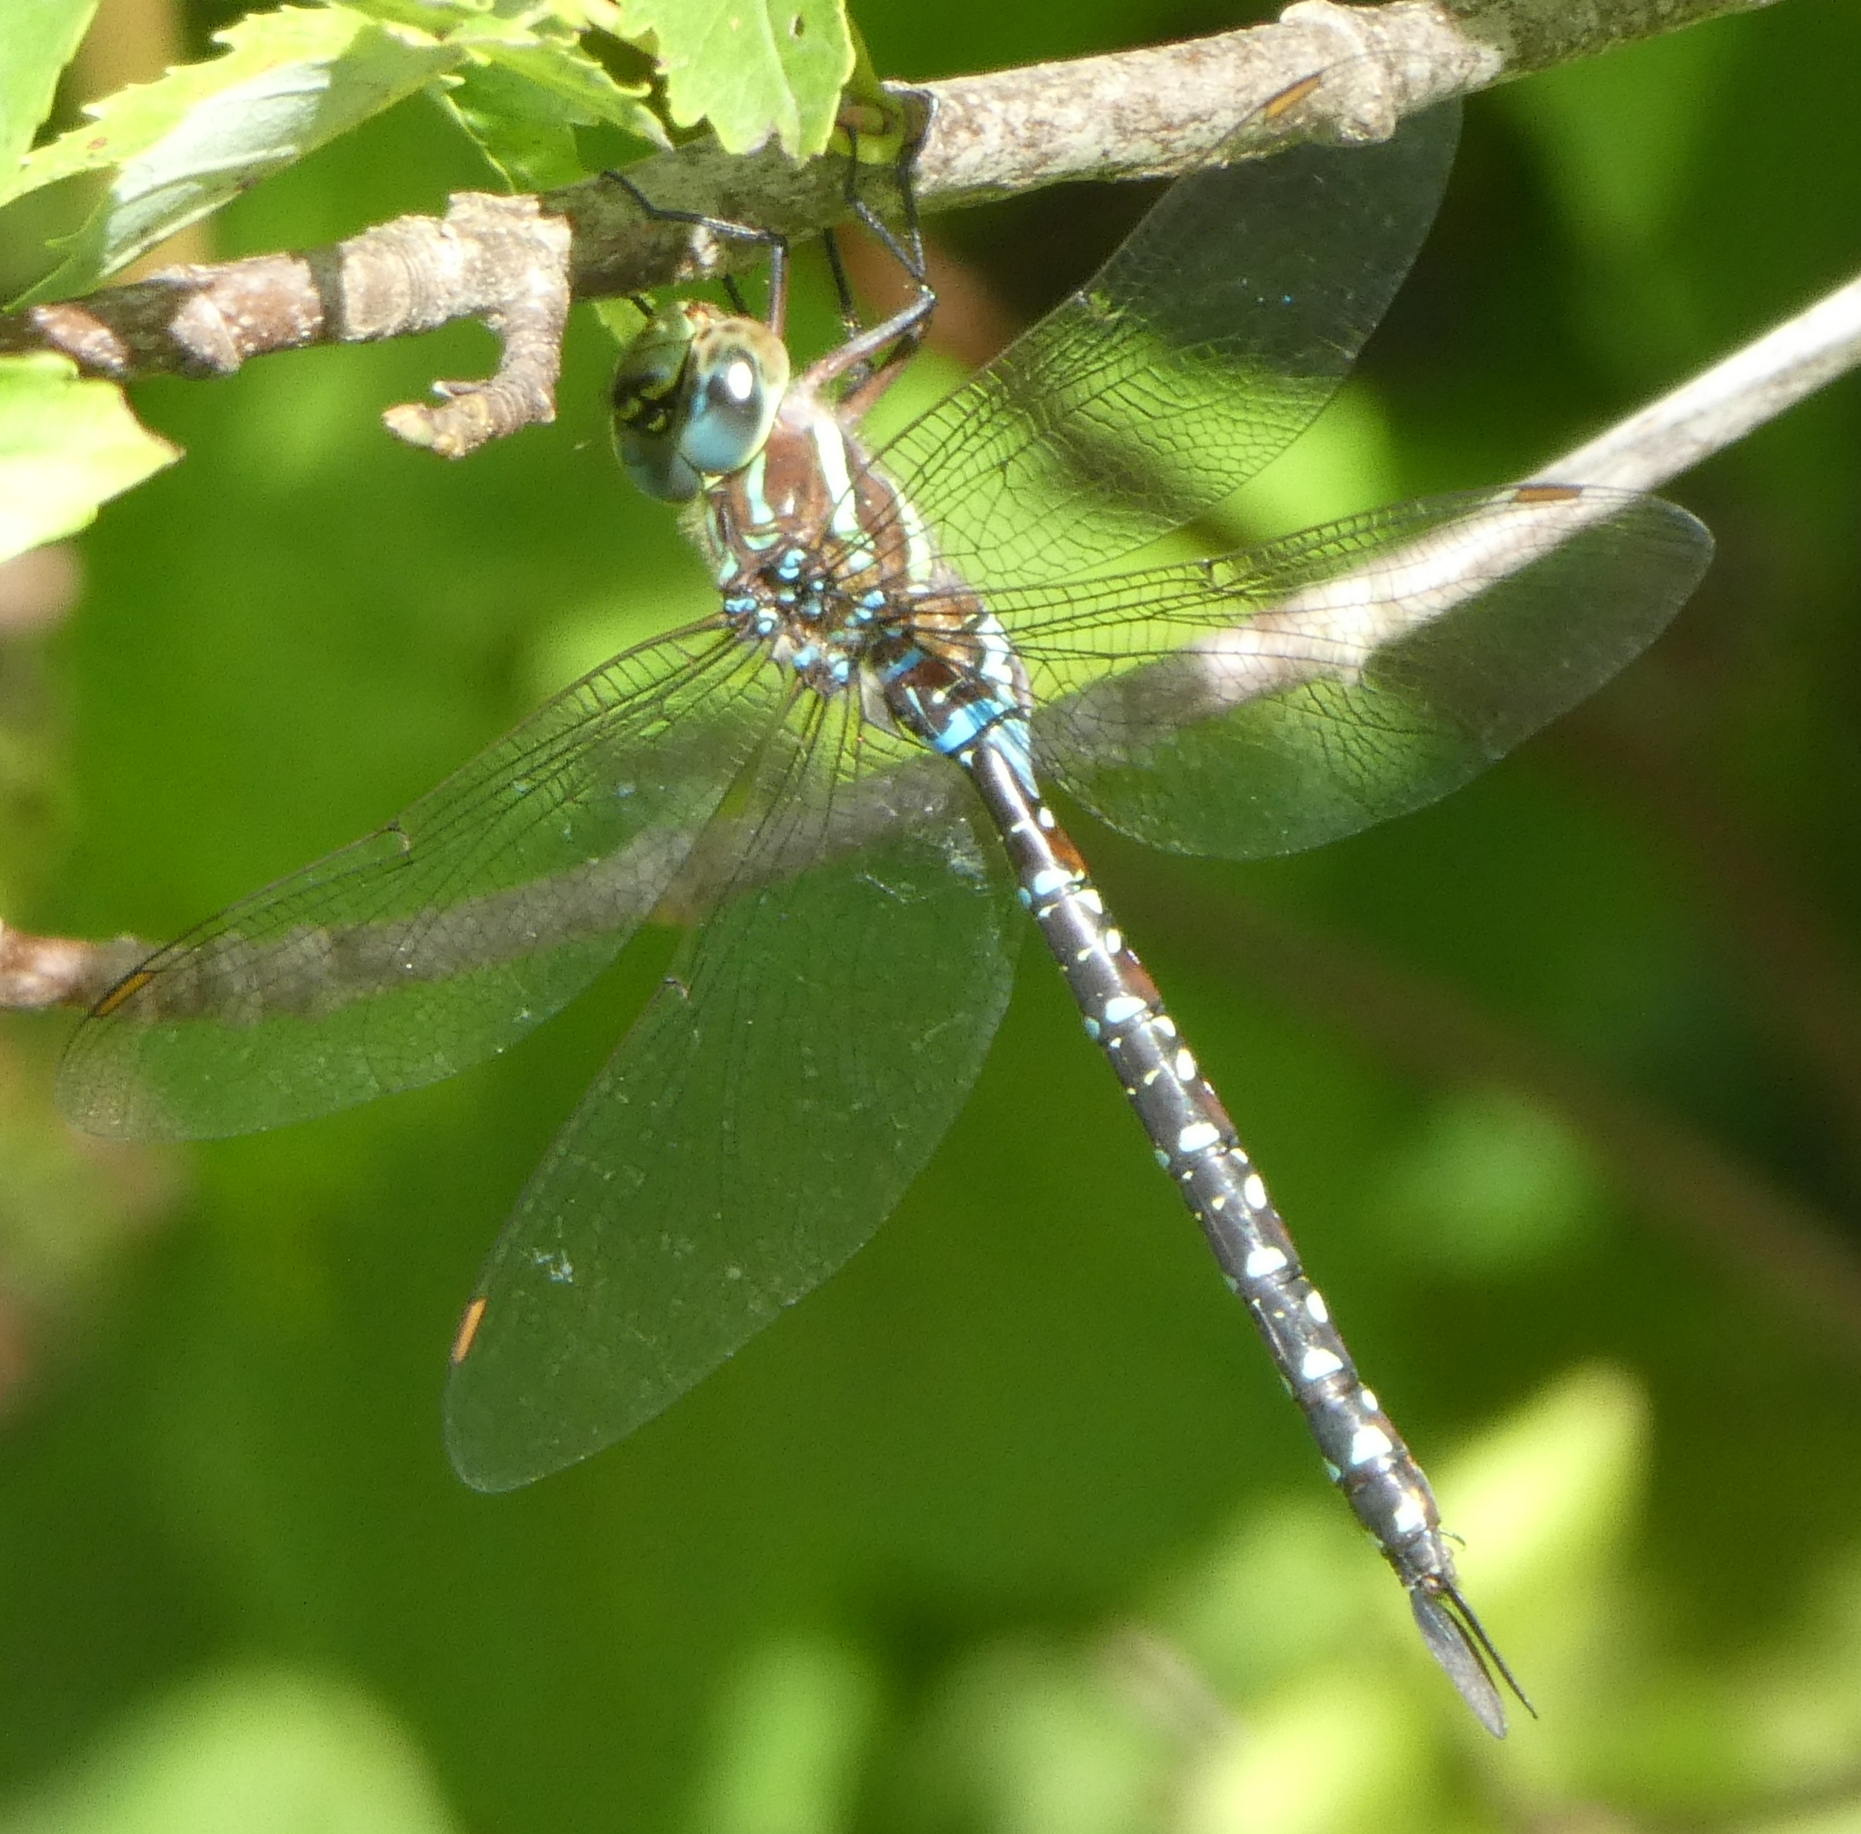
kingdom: Animalia
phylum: Arthropoda
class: Insecta
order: Odonata
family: Aeshnidae
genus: Aeshna
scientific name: Aeshna tuberculifera
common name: Aeschne à tubercules
